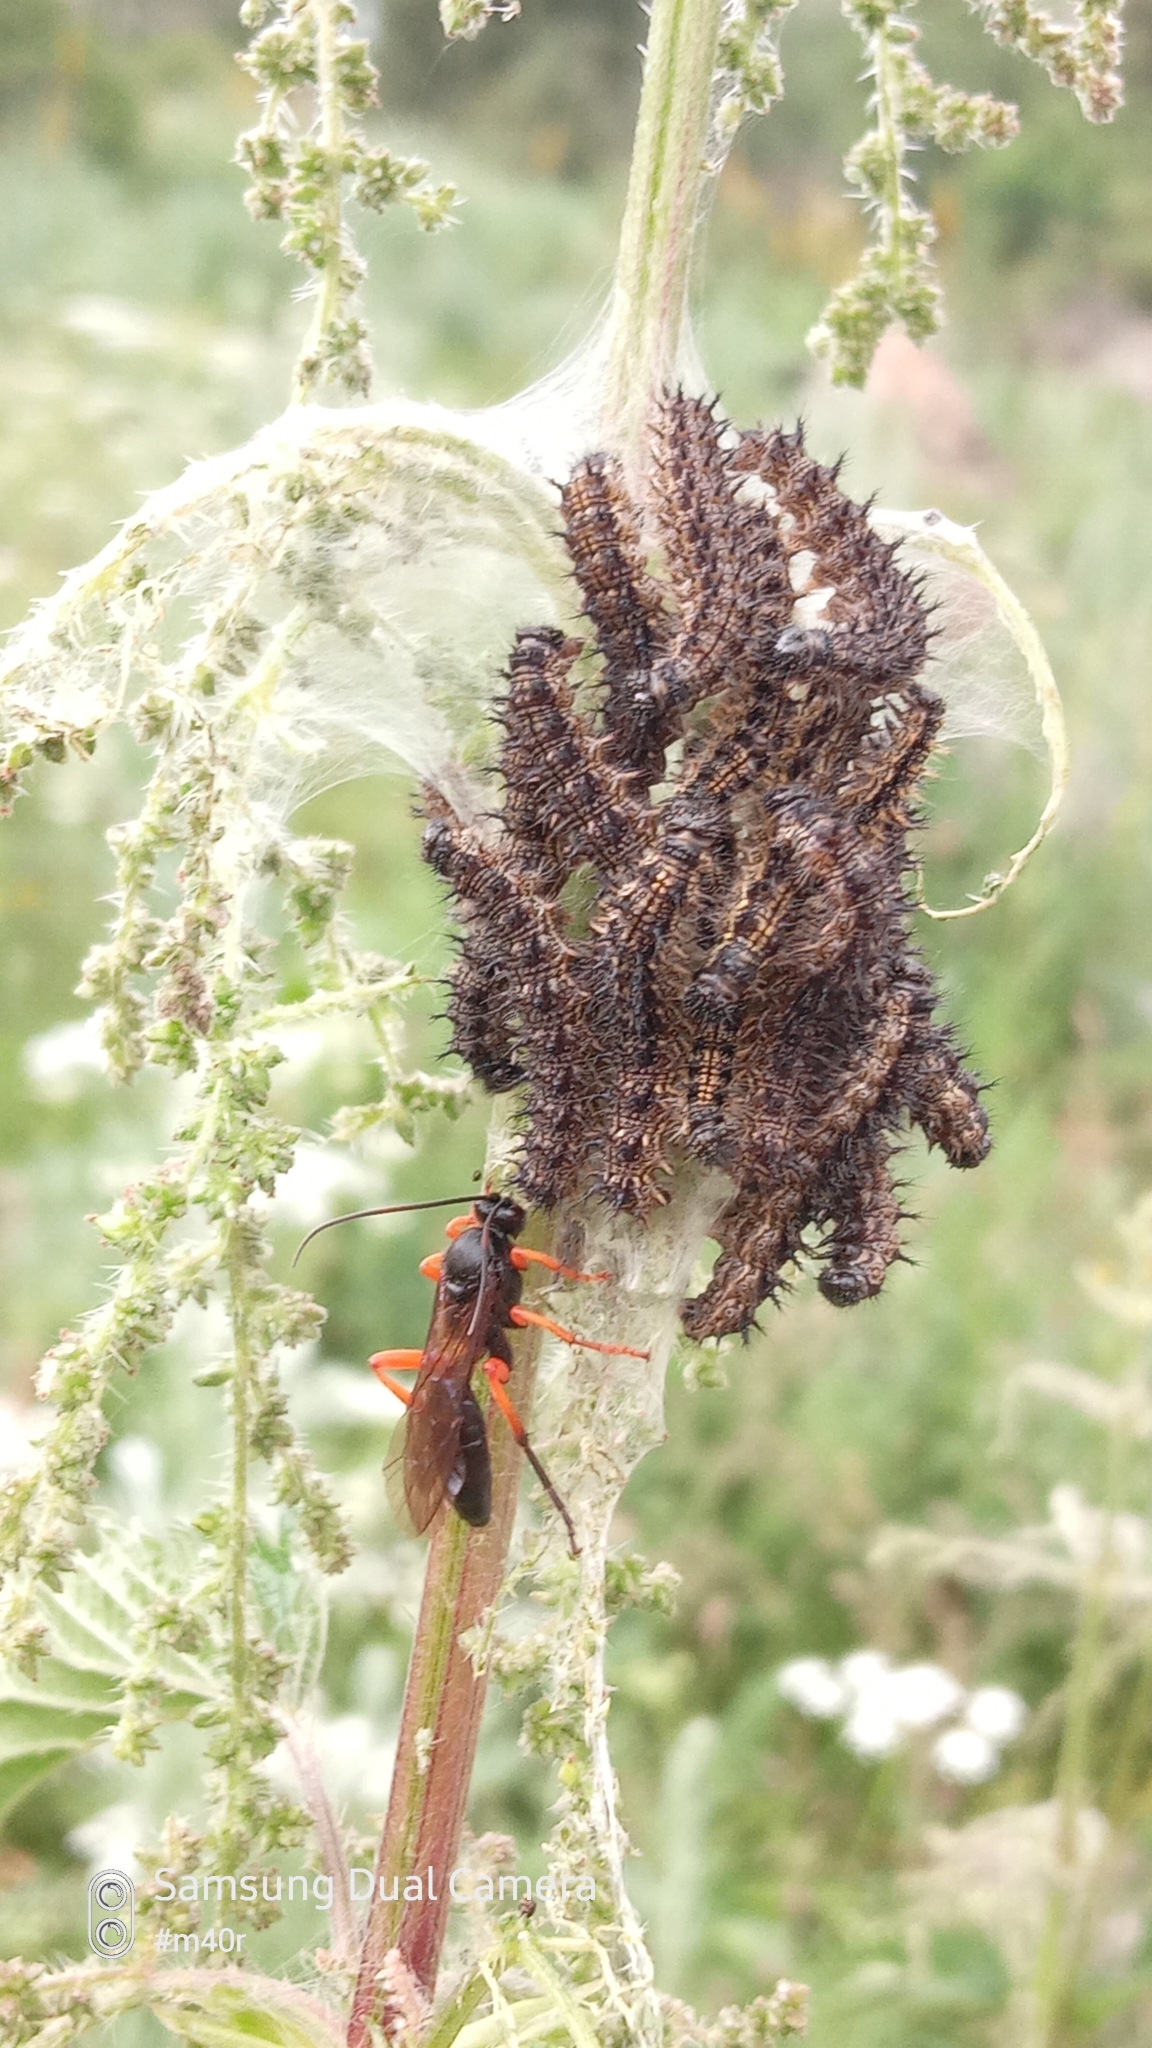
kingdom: Animalia
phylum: Arthropoda
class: Insecta
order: Lepidoptera
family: Nymphalidae
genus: Aglais
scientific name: Aglais urticae
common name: Small tortoiseshell
